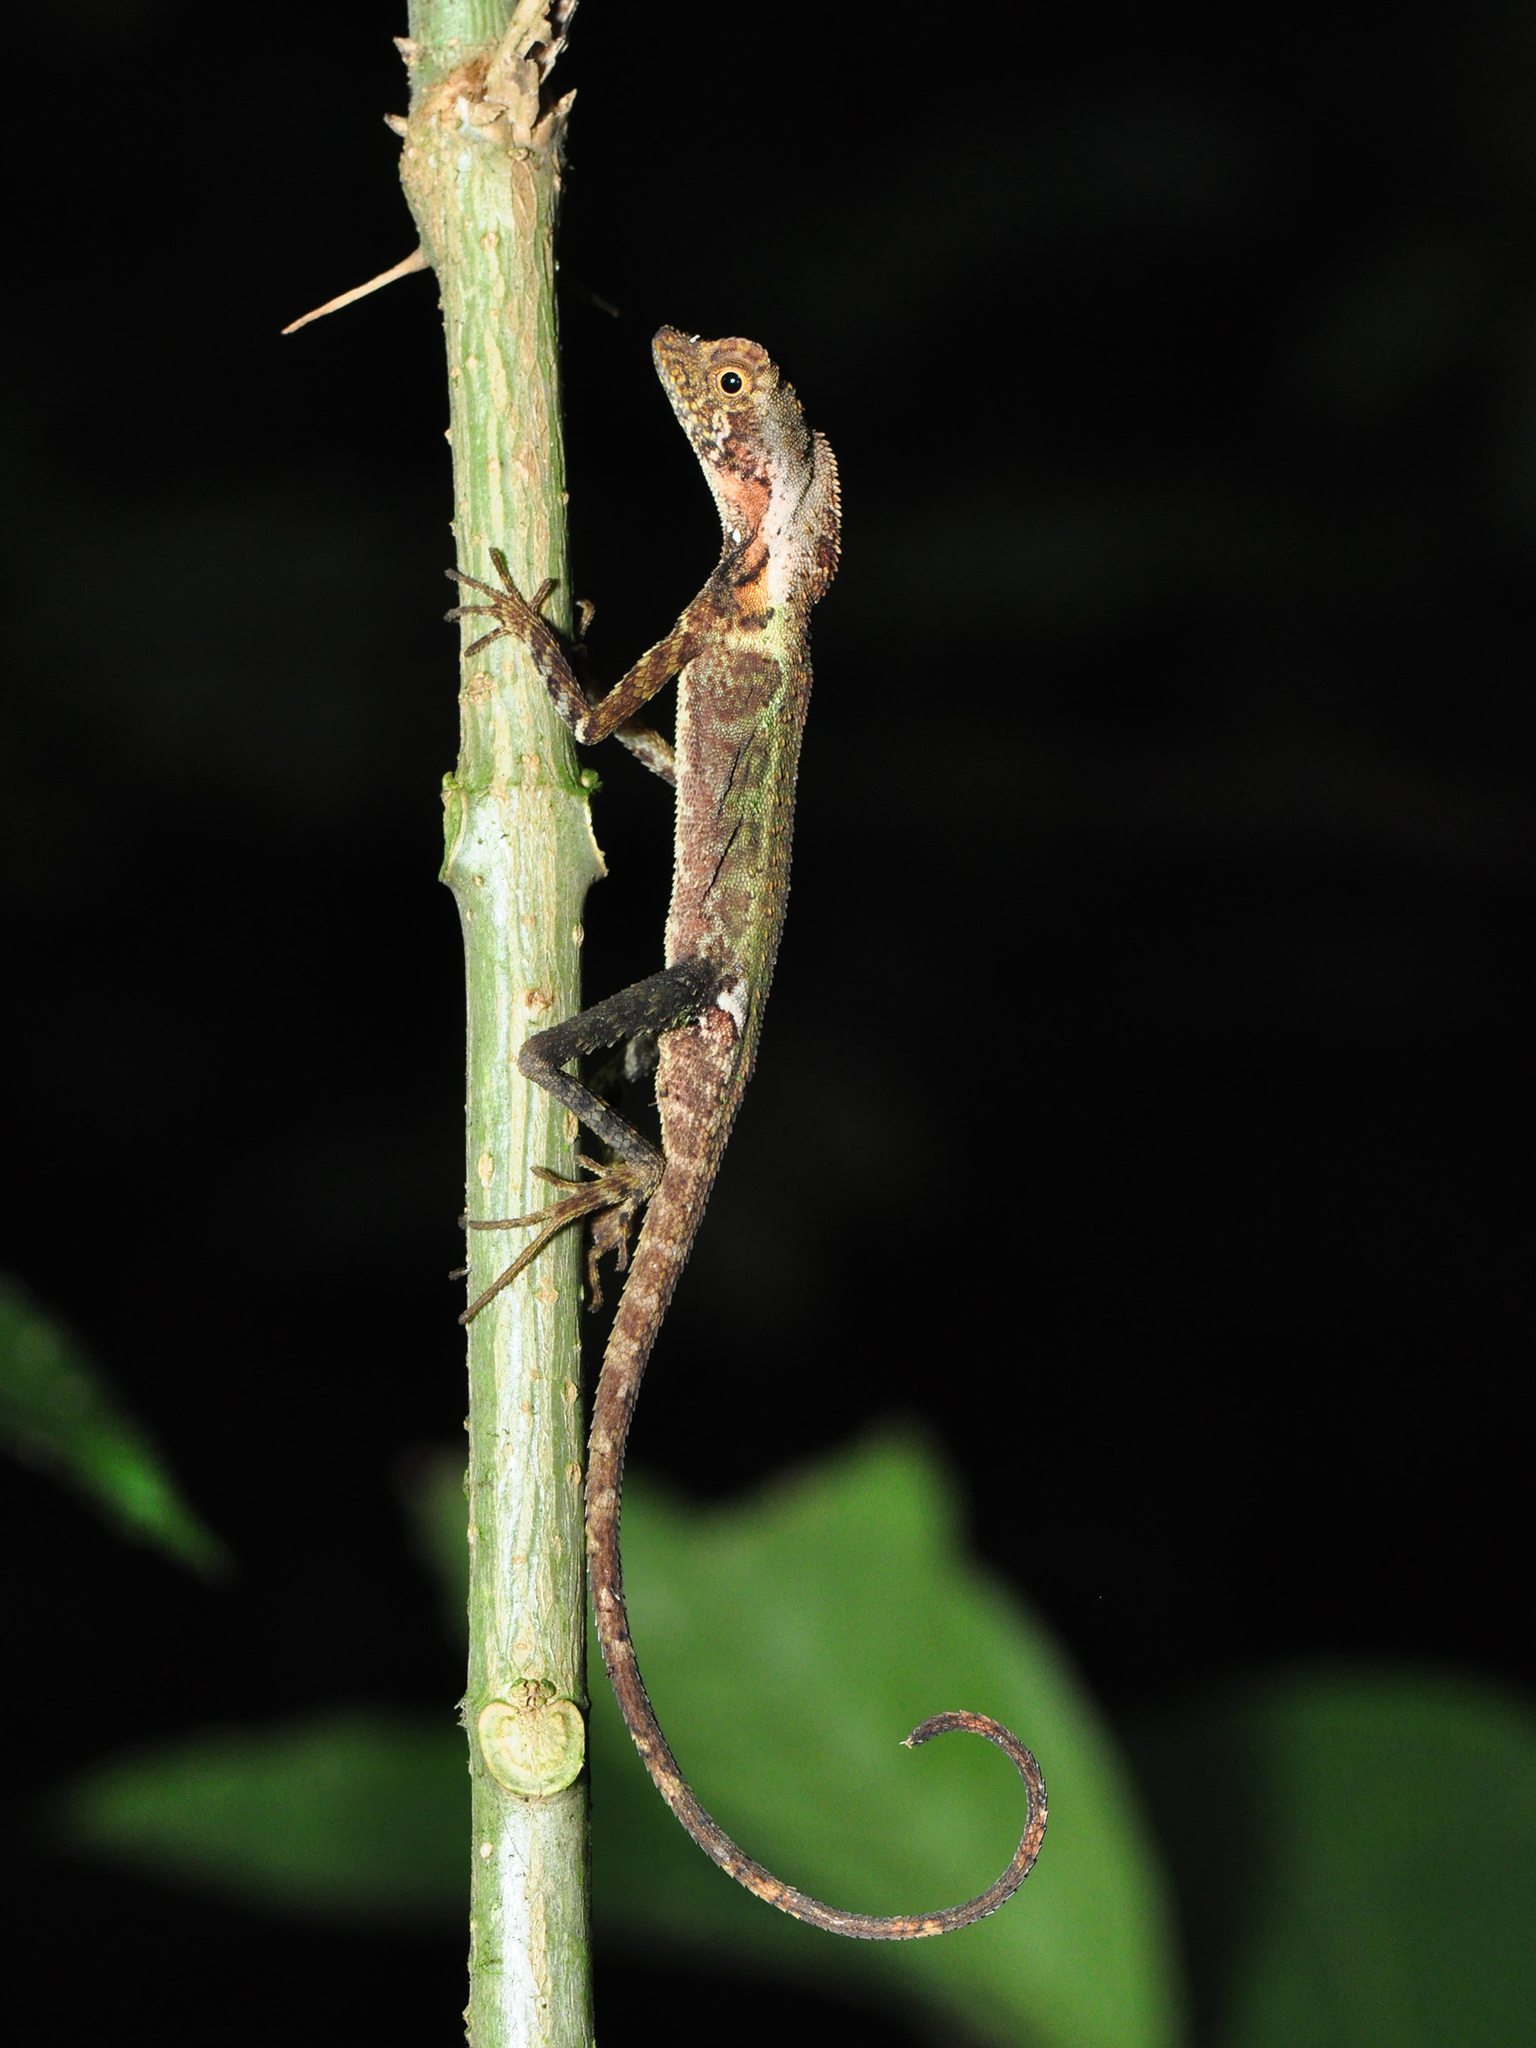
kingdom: Animalia
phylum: Chordata
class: Squamata
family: Agamidae
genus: Aphaniotis
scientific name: Aphaniotis fusca
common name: Dusky earless agama
